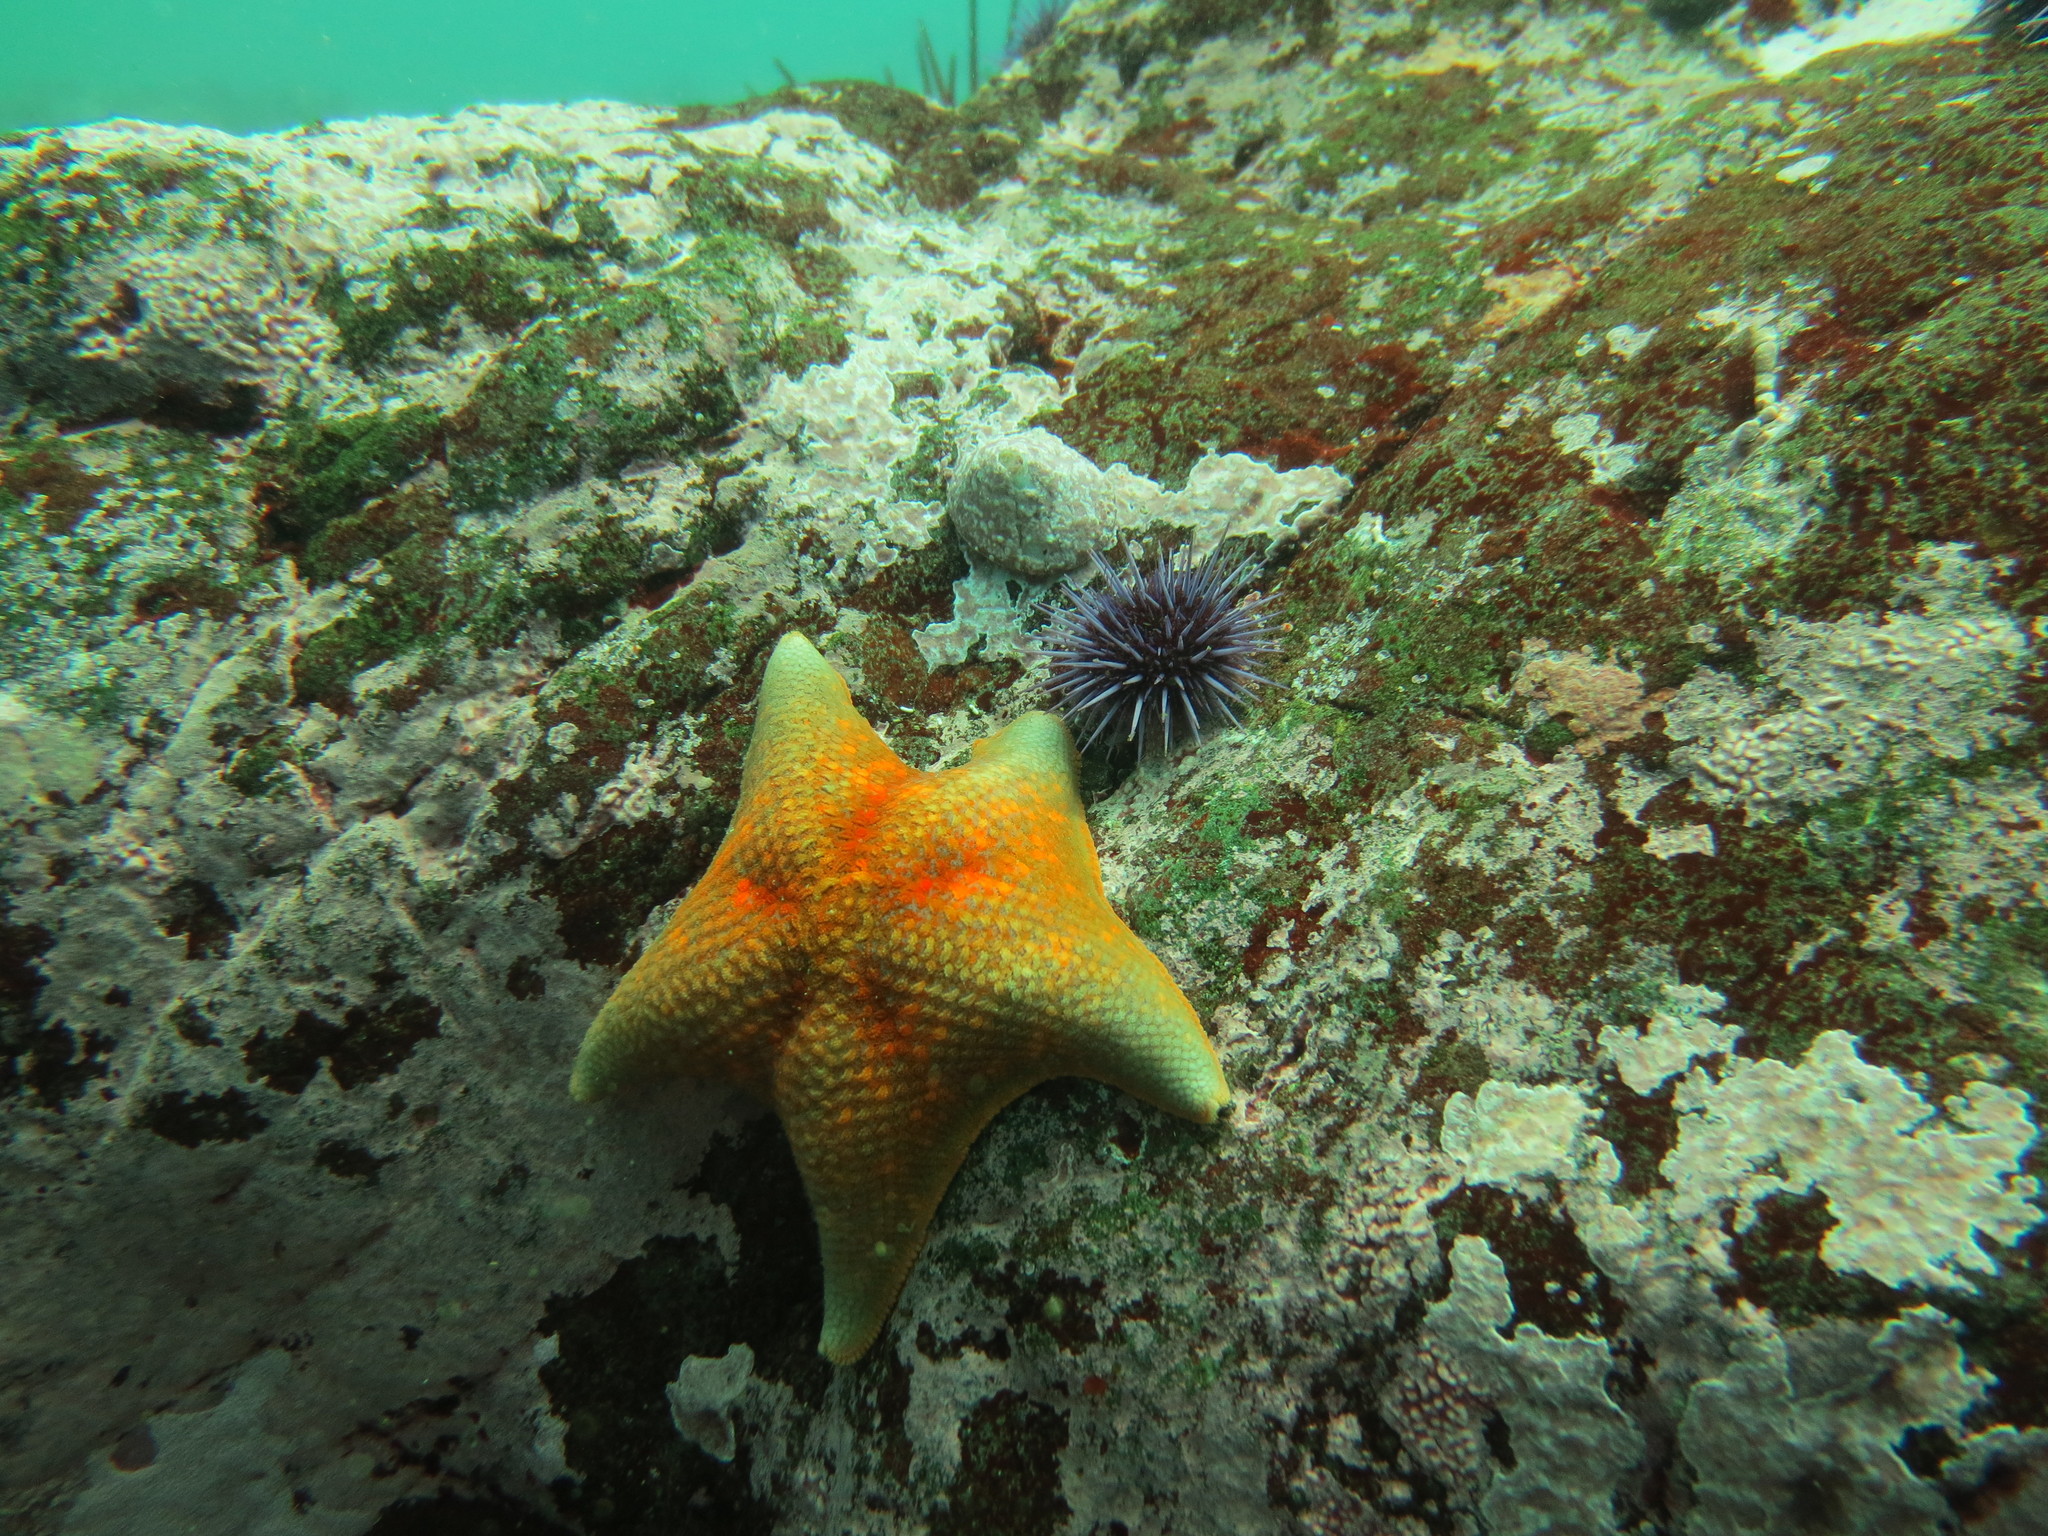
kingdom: Animalia
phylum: Echinodermata
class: Asteroidea
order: Valvatida
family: Asterinidae
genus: Patiria
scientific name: Patiria miniata
